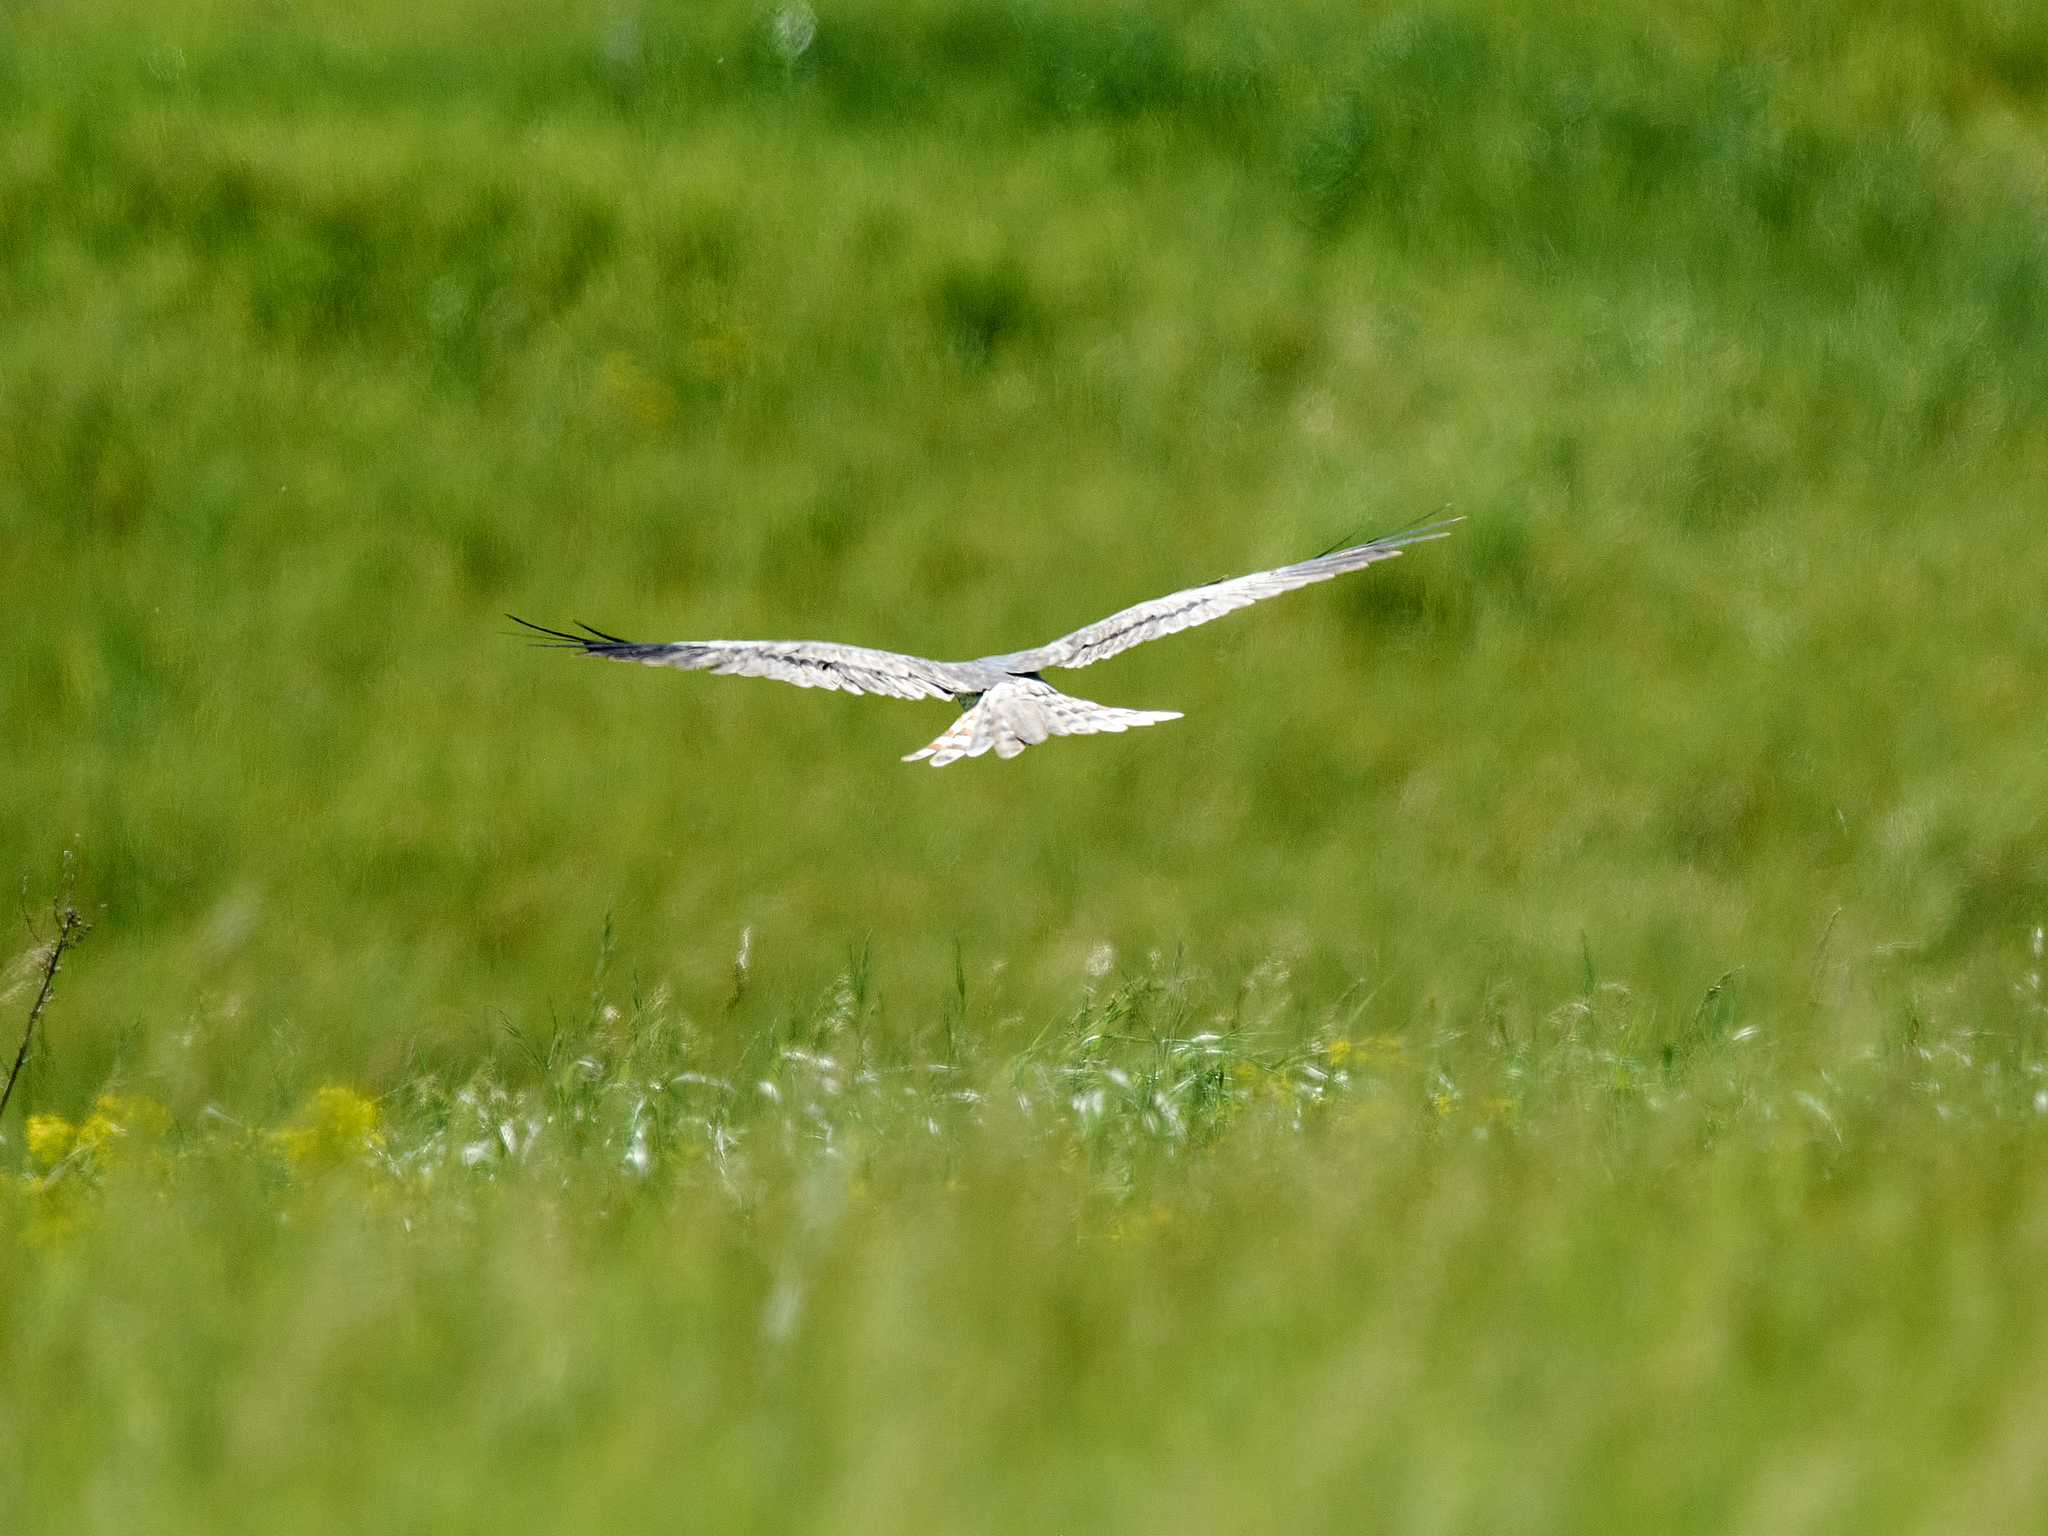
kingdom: Animalia
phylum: Chordata
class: Aves
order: Accipitriformes
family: Accipitridae
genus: Circus
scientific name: Circus pygargus
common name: Montagu's harrier
